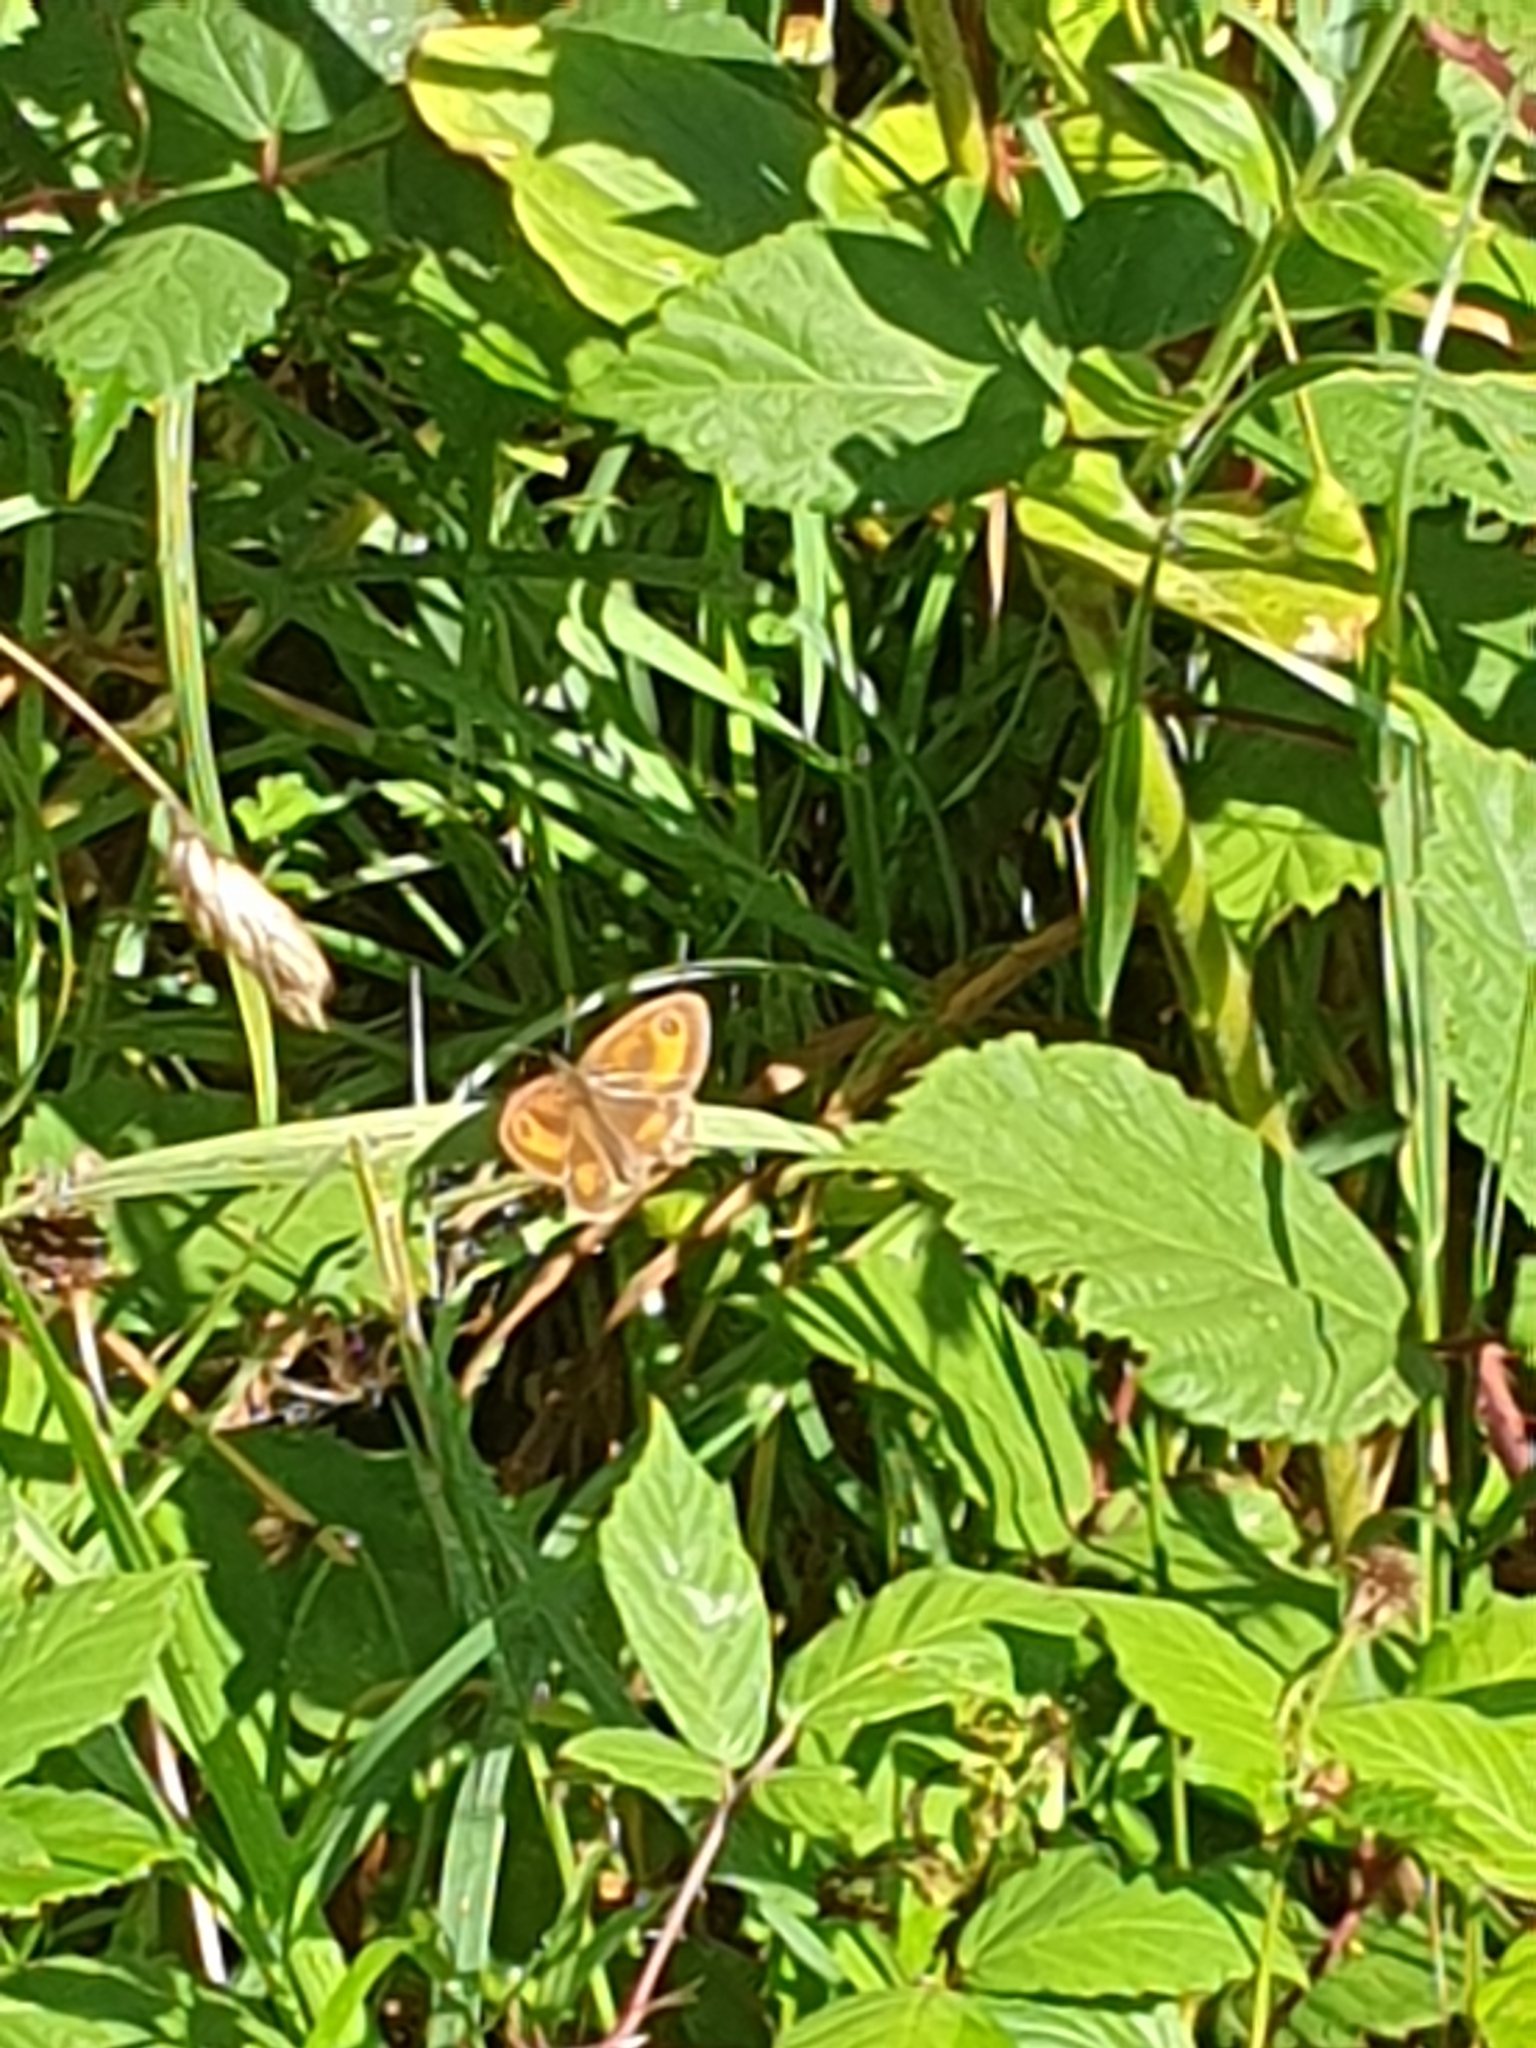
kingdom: Animalia
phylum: Arthropoda
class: Insecta
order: Lepidoptera
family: Nymphalidae
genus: Pyronia
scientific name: Pyronia tithonus
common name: Gatekeeper
